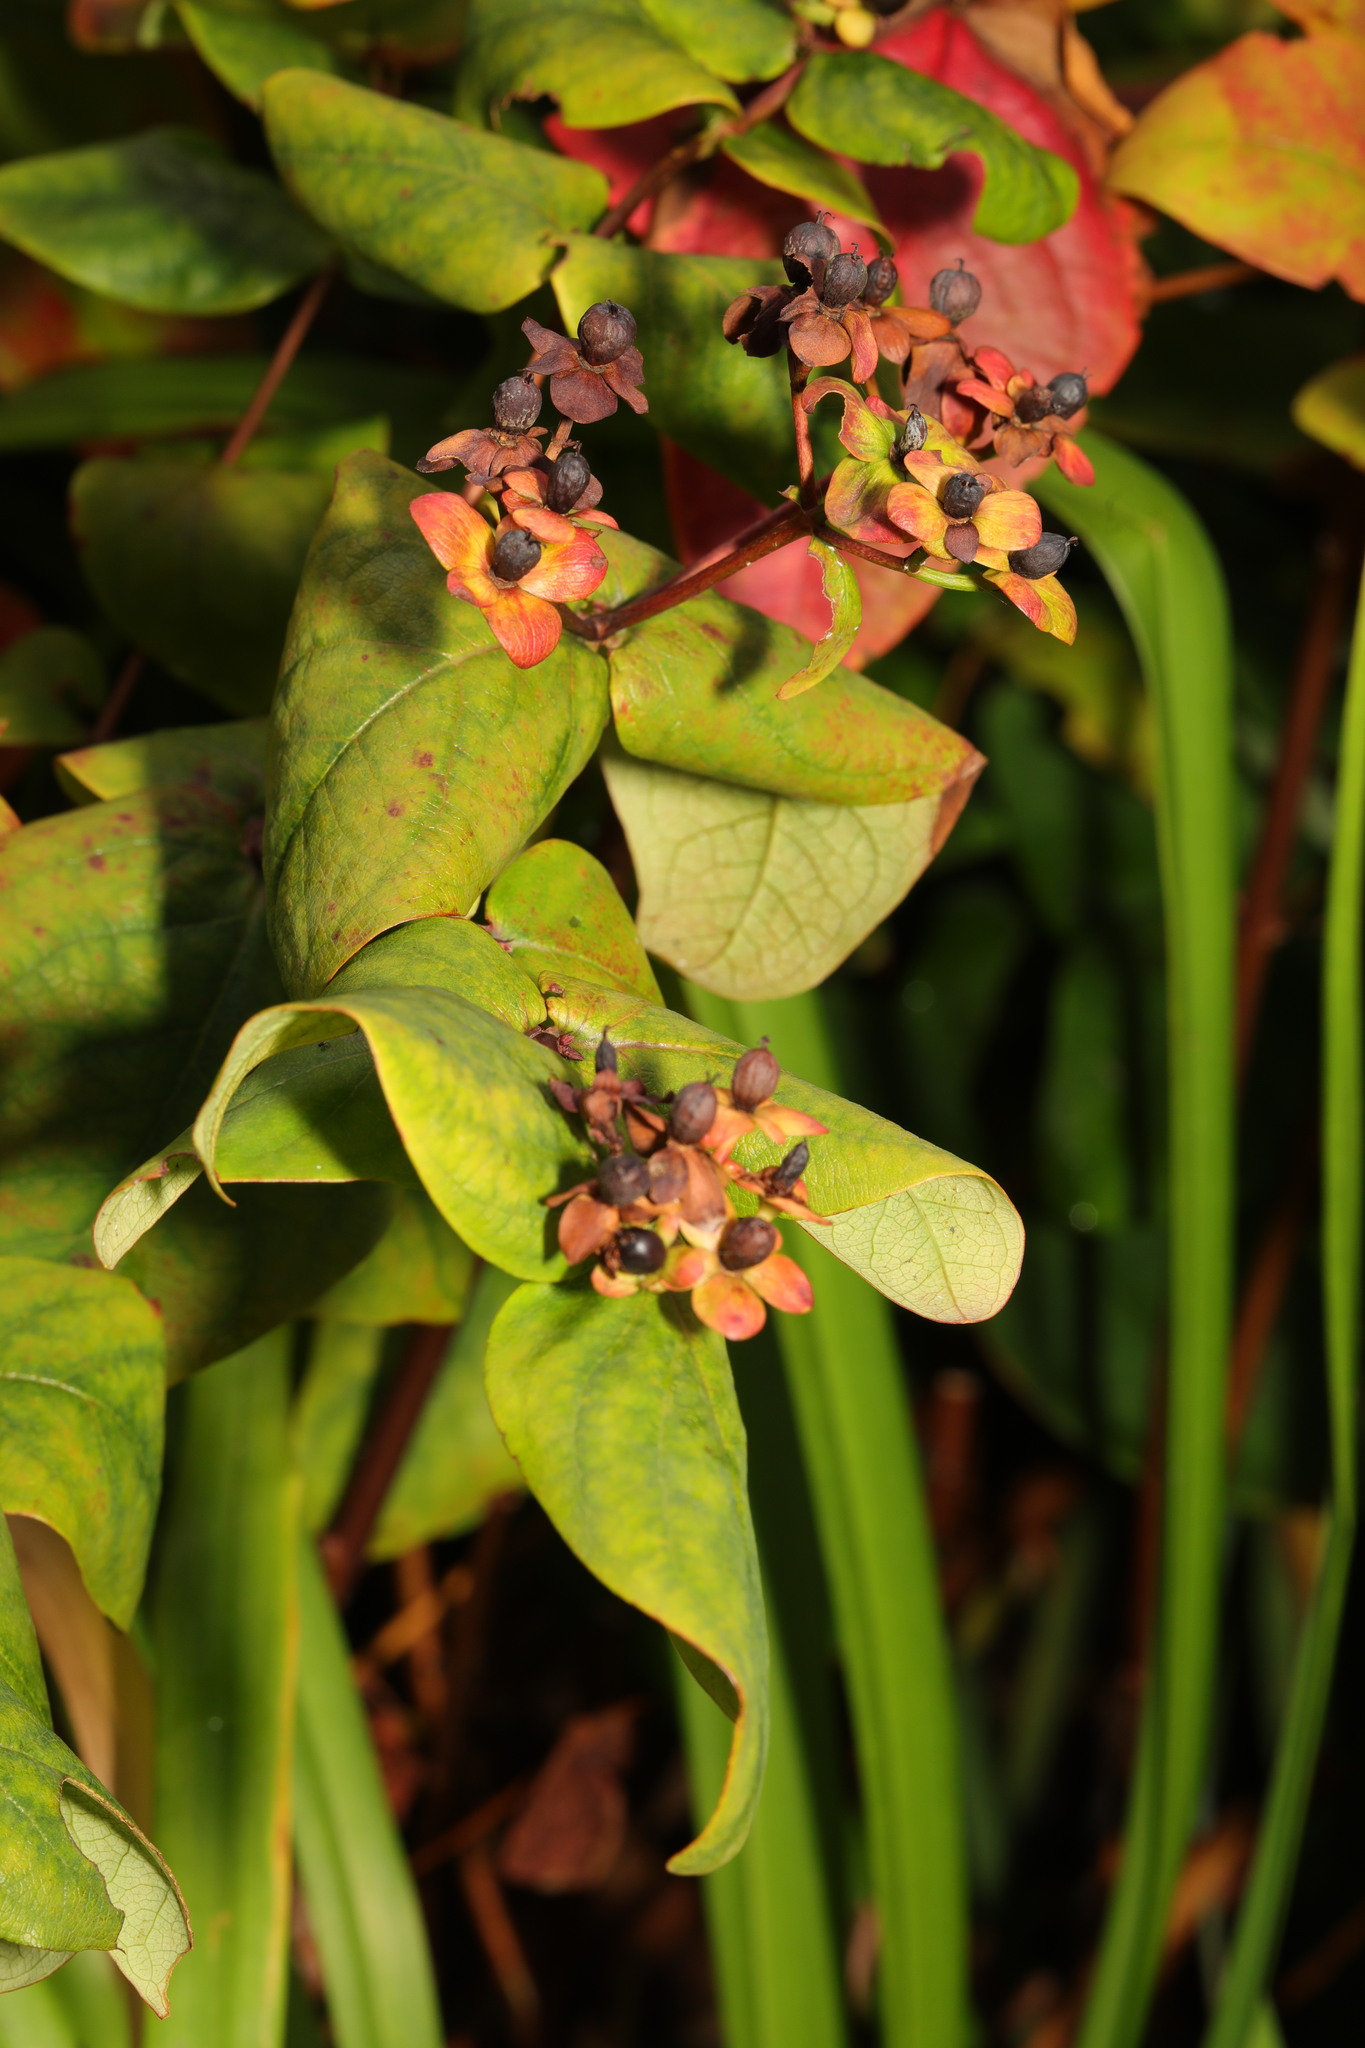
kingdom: Plantae
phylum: Tracheophyta
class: Magnoliopsida
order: Malpighiales
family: Hypericaceae
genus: Hypericum
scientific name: Hypericum androsaemum
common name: Sweet-amber
